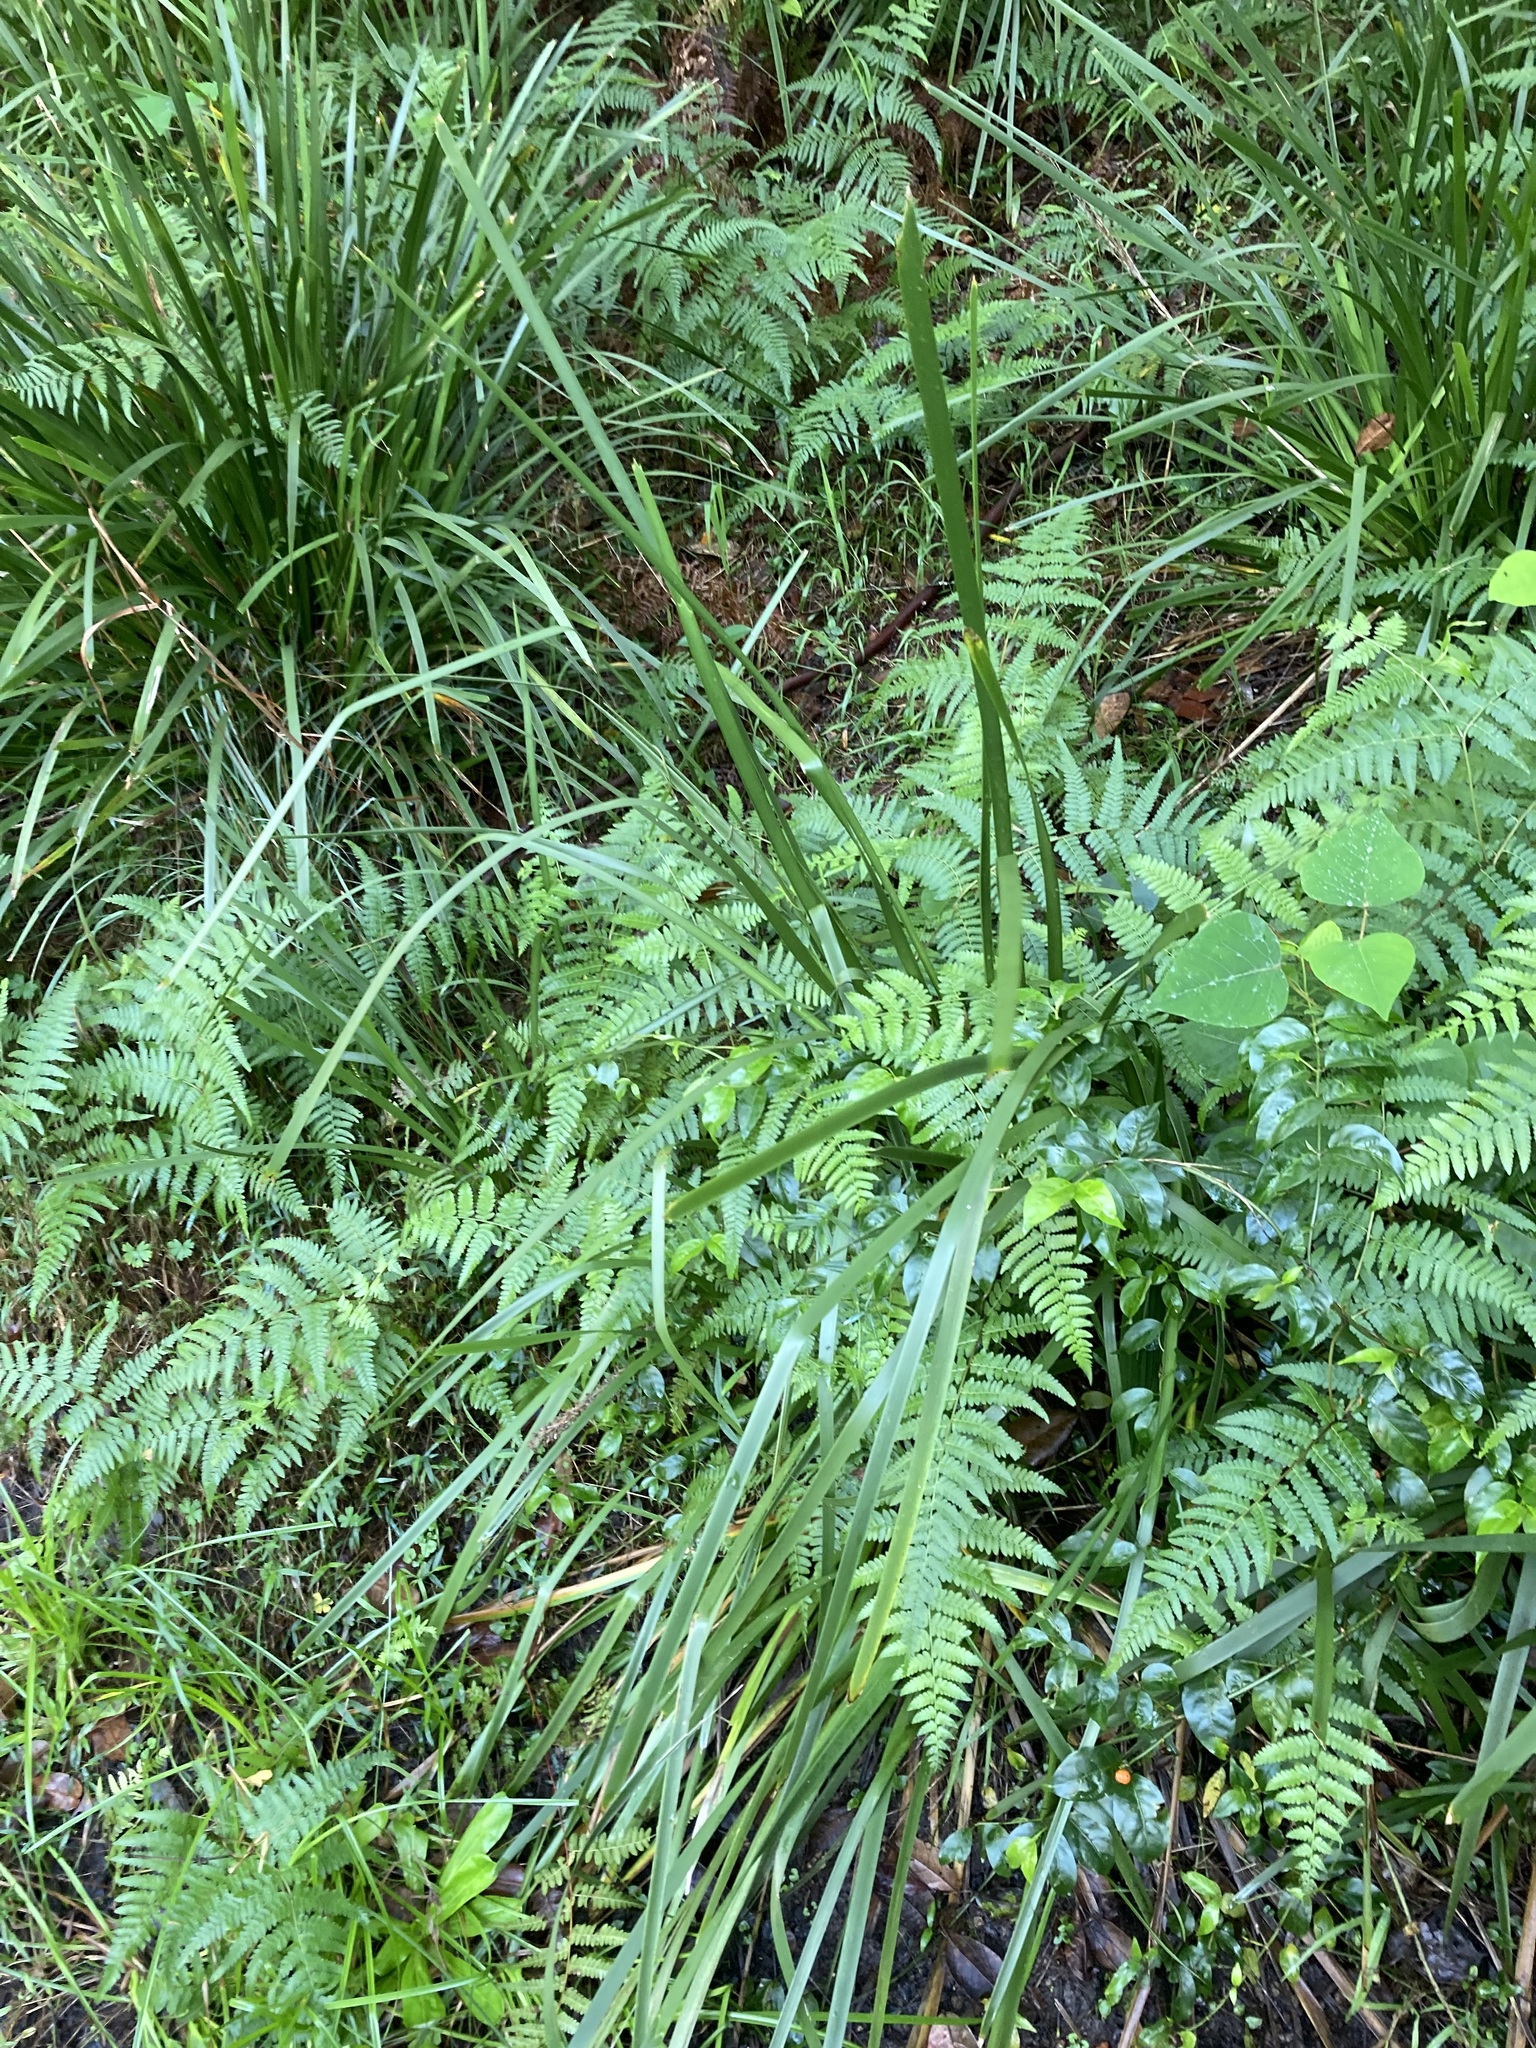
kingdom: Plantae
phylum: Tracheophyta
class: Liliopsida
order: Asparagales
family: Asparagaceae
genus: Lomandra
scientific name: Lomandra longifolia
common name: Longleaf mat-rush
